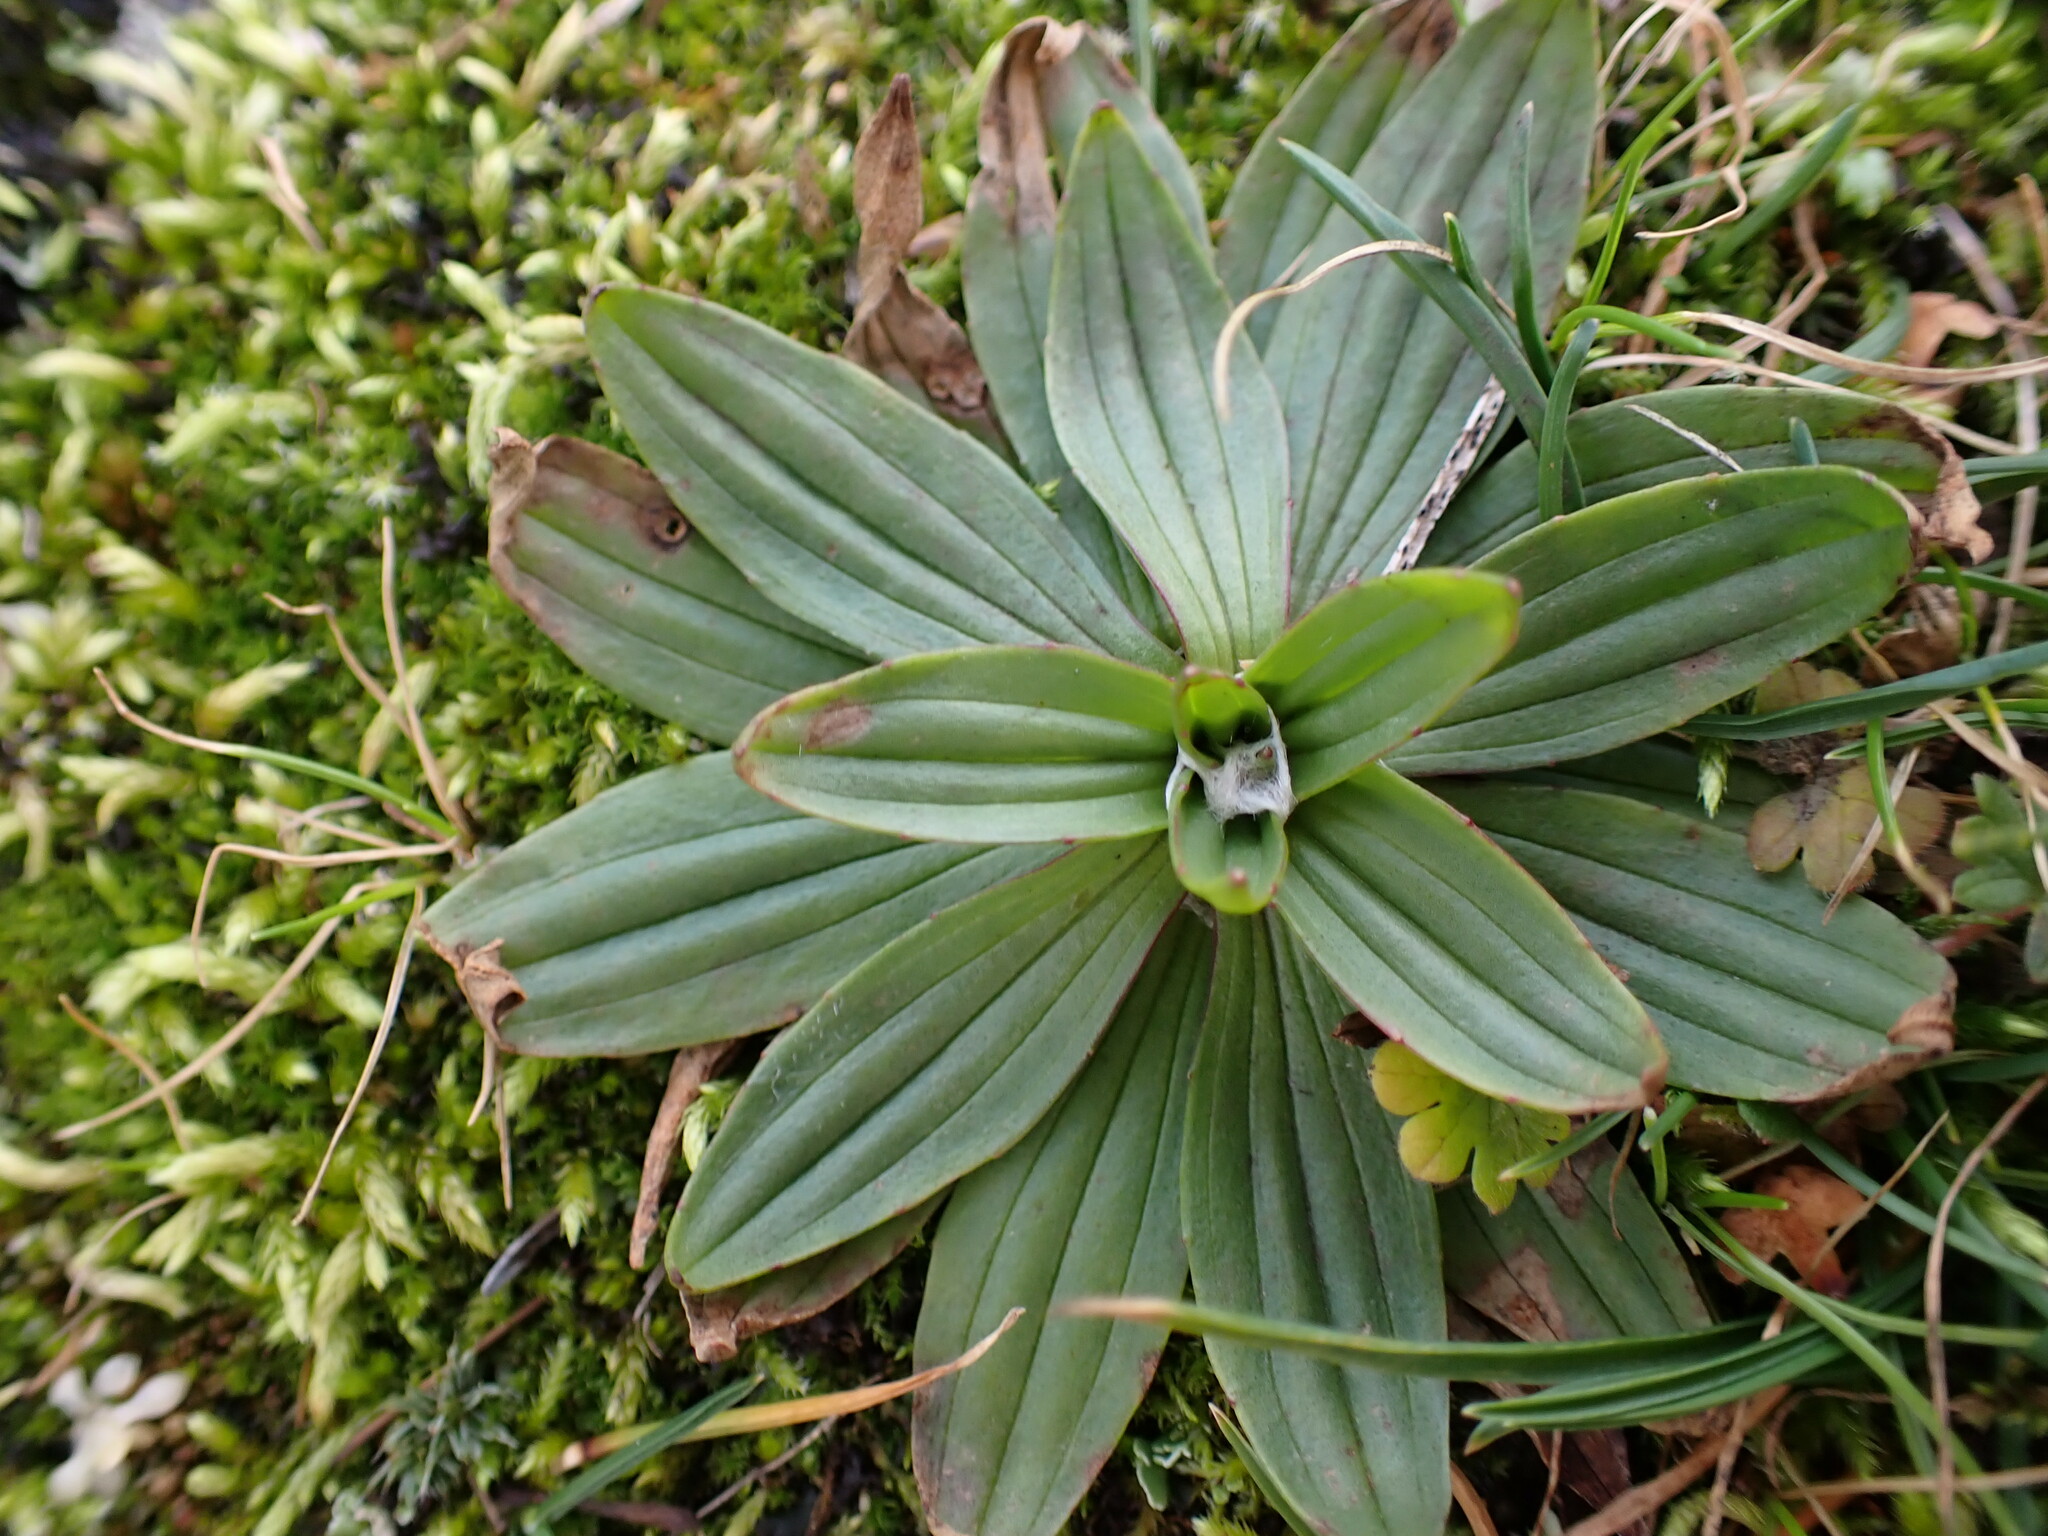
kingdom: Plantae
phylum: Tracheophyta
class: Magnoliopsida
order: Lamiales
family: Plantaginaceae
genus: Plantago
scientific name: Plantago lanceolata
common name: Ribwort plantain
